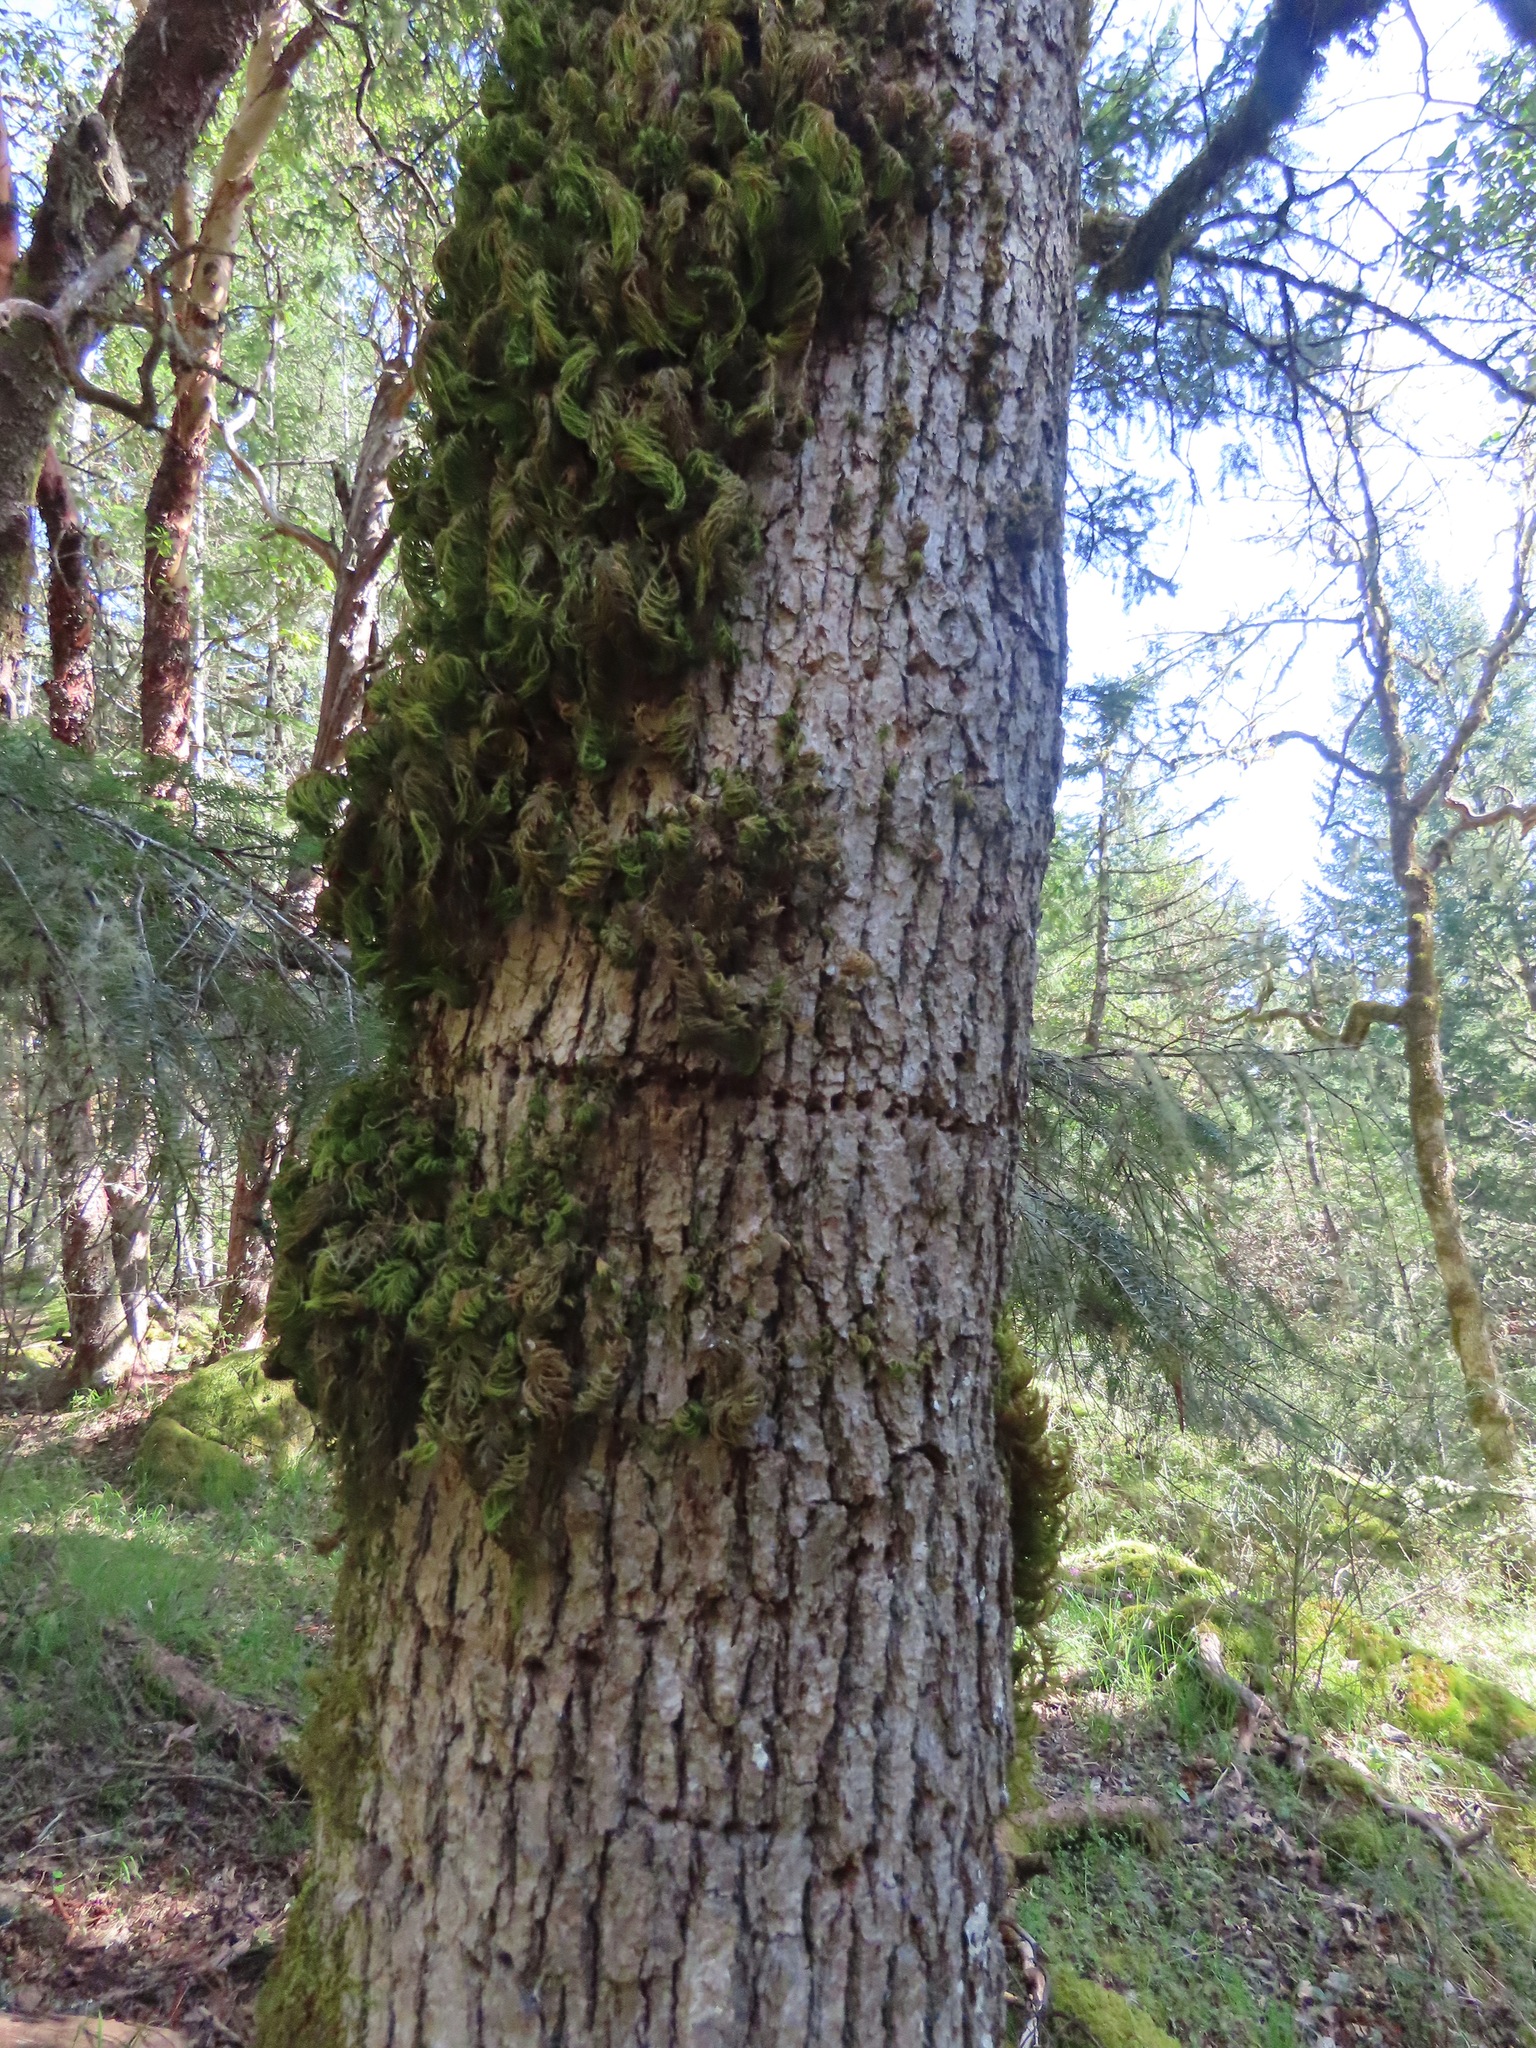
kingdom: Plantae
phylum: Bryophyta
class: Bryopsida
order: Hypnales
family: Cryphaeaceae
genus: Dendroalsia
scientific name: Dendroalsia abietina
